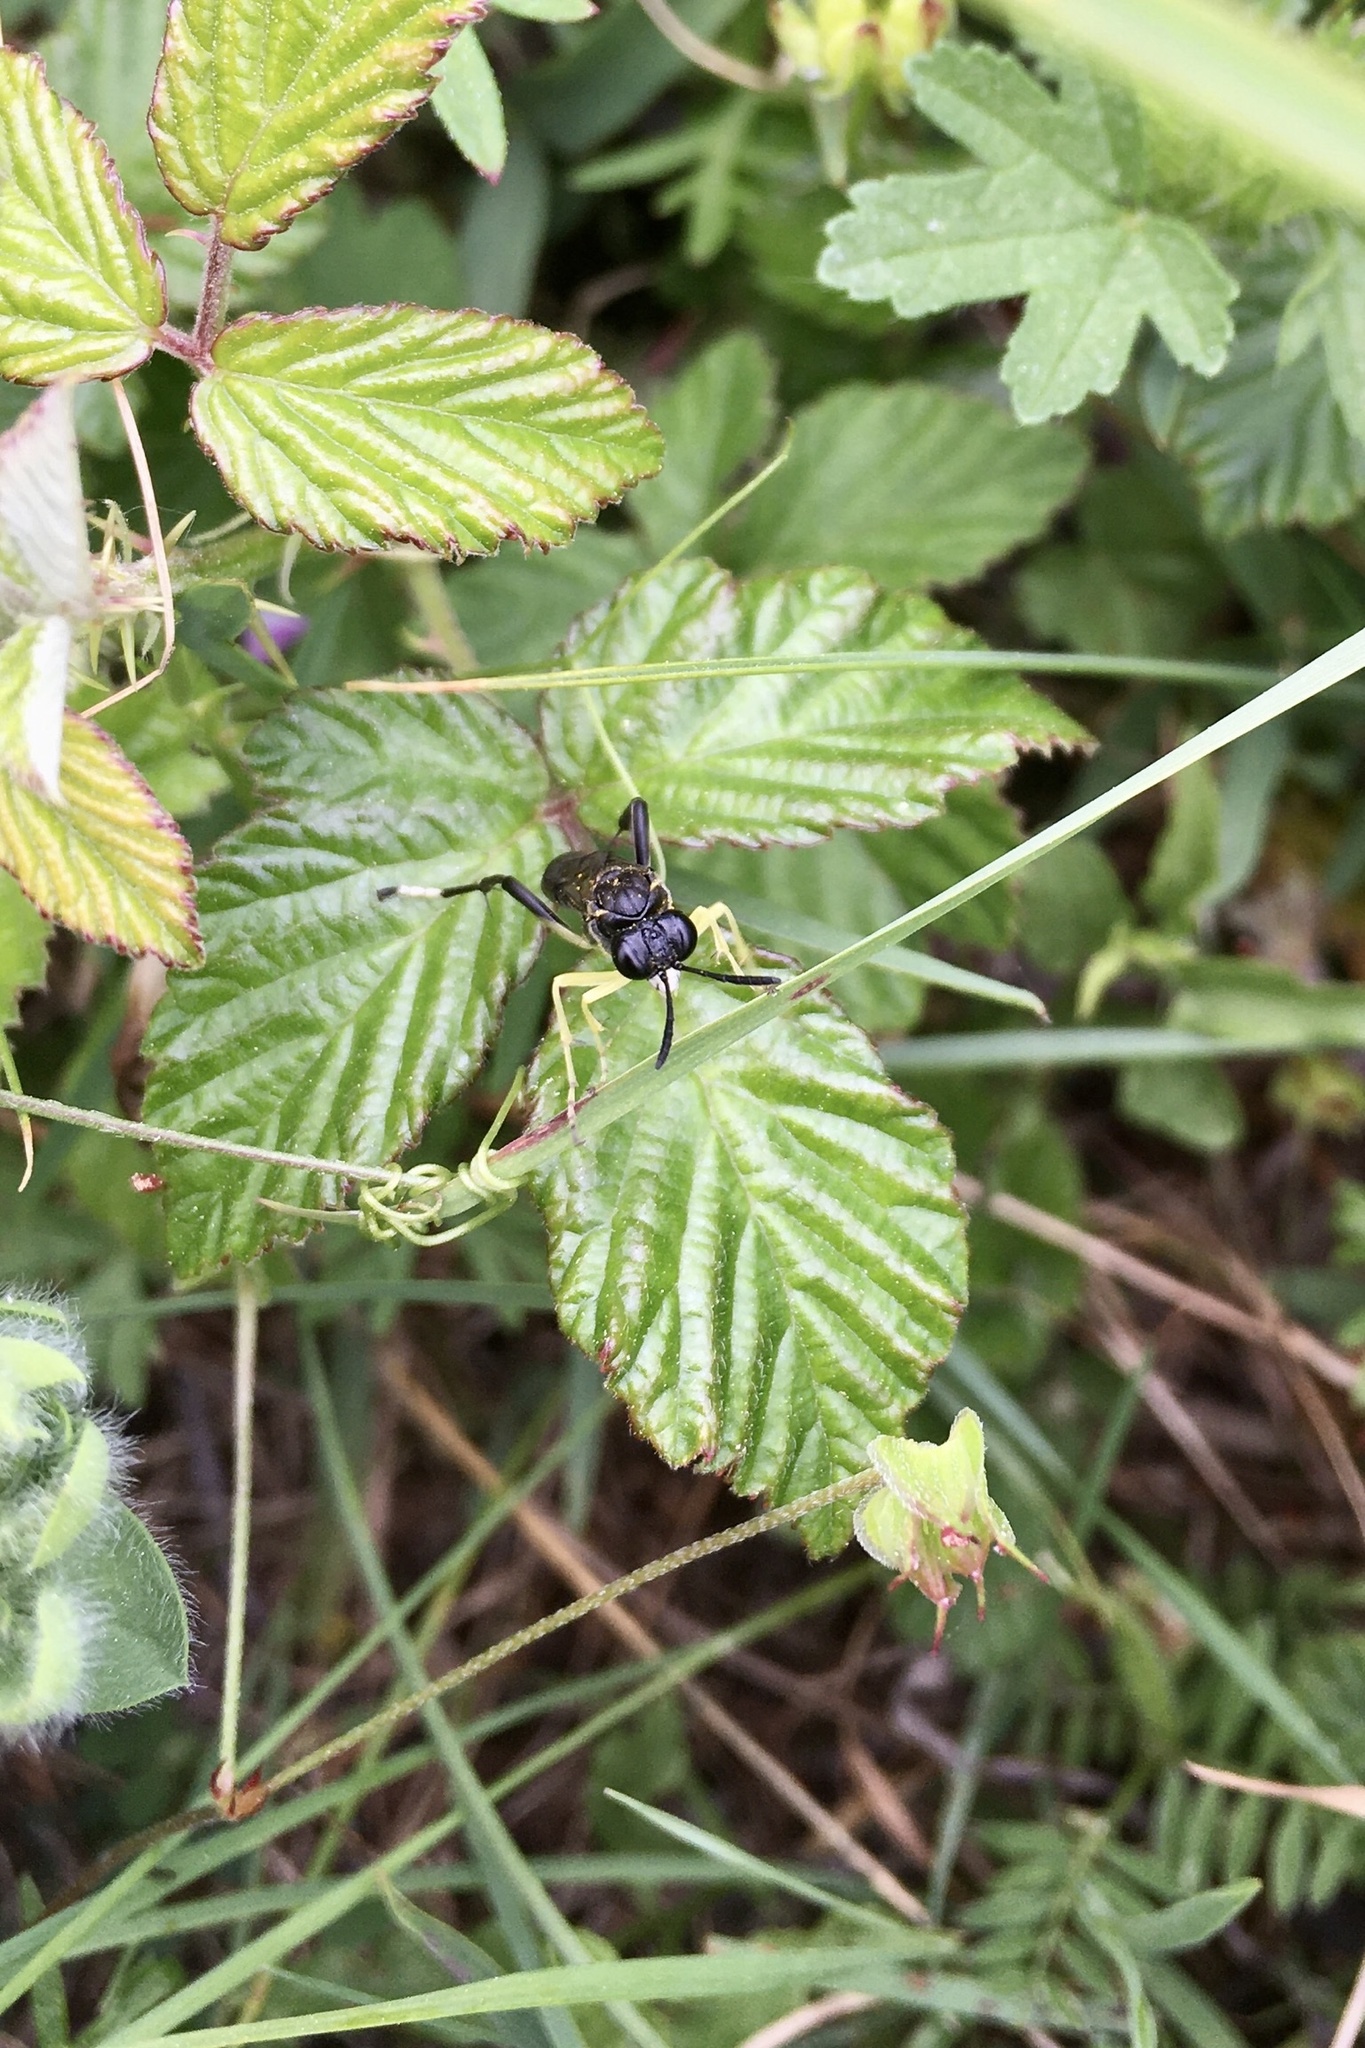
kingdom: Animalia
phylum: Arthropoda
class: Insecta
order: Hymenoptera
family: Tenthredinidae
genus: Macrophya
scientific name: Macrophya montana
